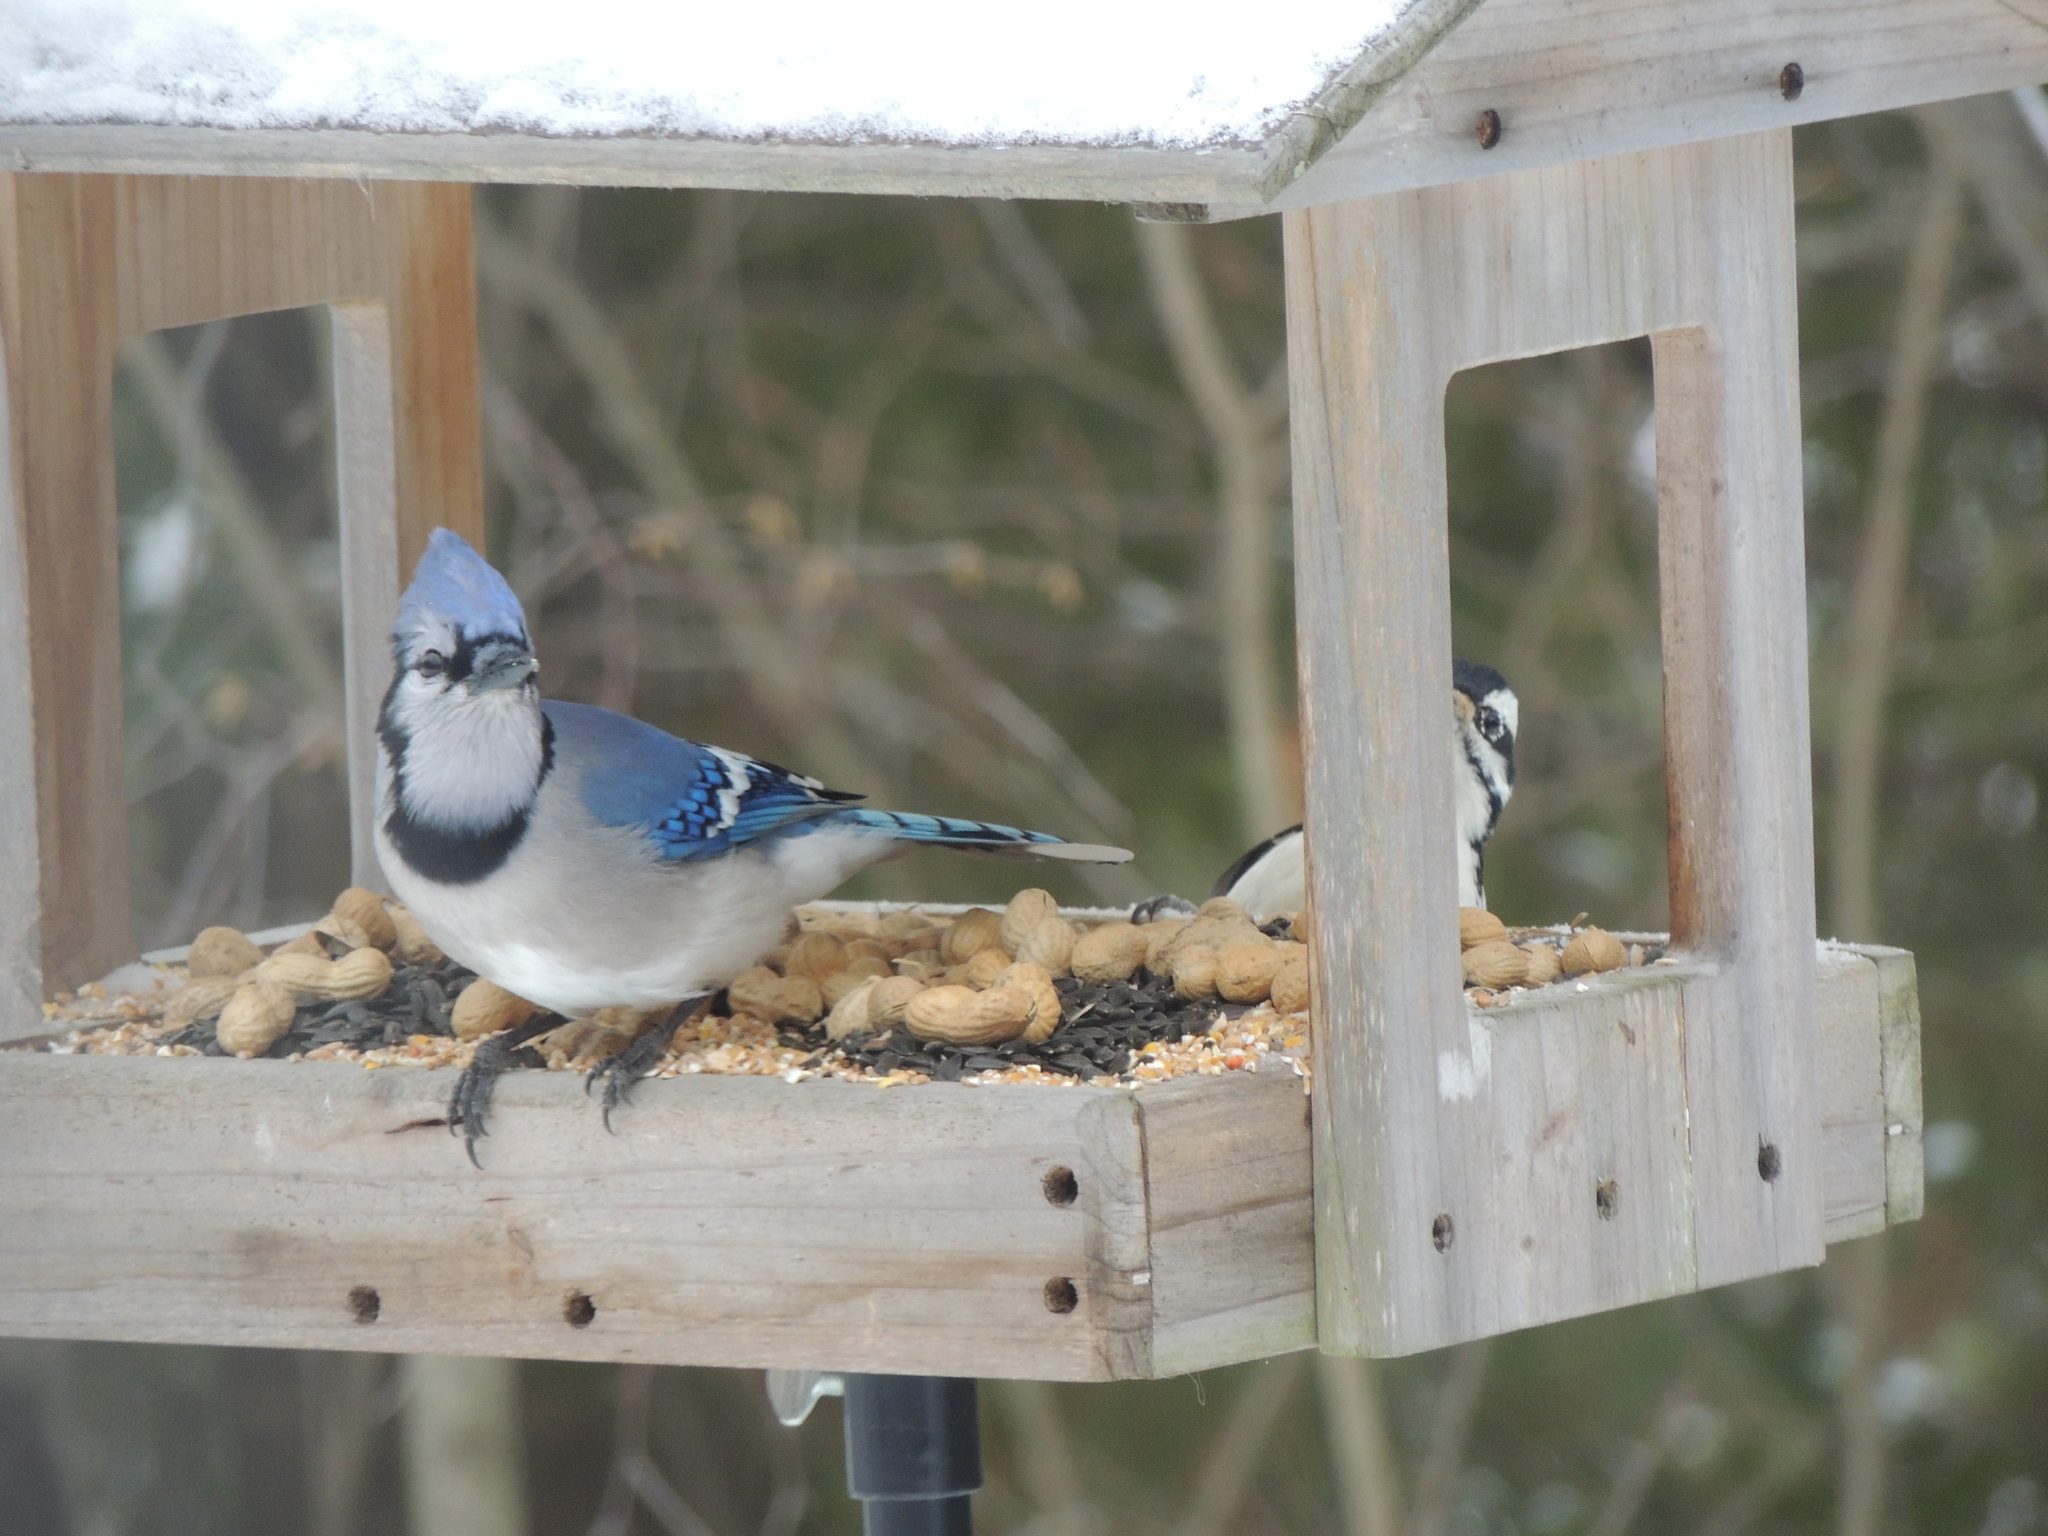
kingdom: Animalia
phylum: Chordata
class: Aves
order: Passeriformes
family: Corvidae
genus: Cyanocitta
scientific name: Cyanocitta cristata
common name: Blue jay
